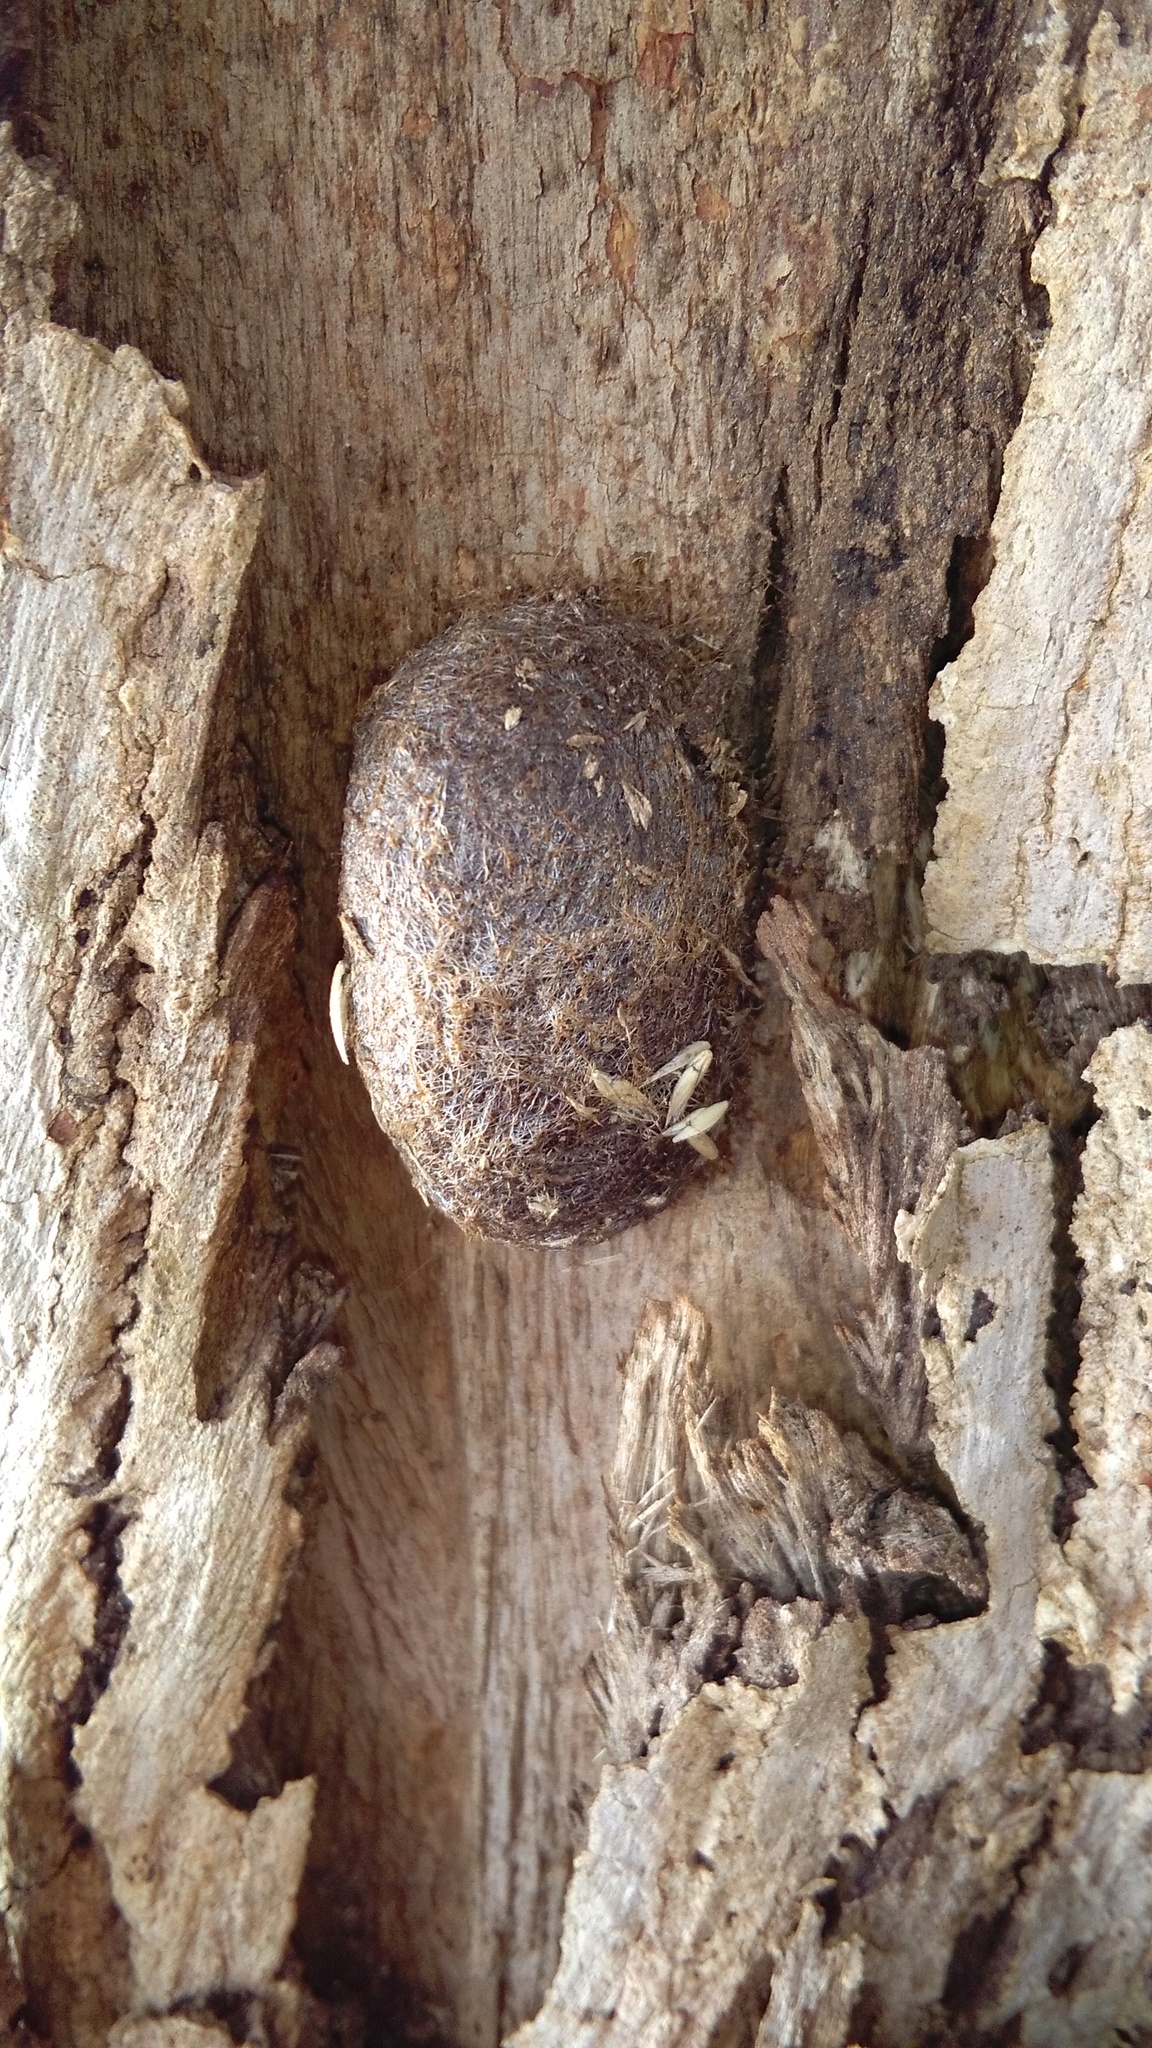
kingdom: Animalia
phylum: Arthropoda
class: Insecta
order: Lepidoptera
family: Saturniidae
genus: Opodiphthera
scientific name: Opodiphthera
